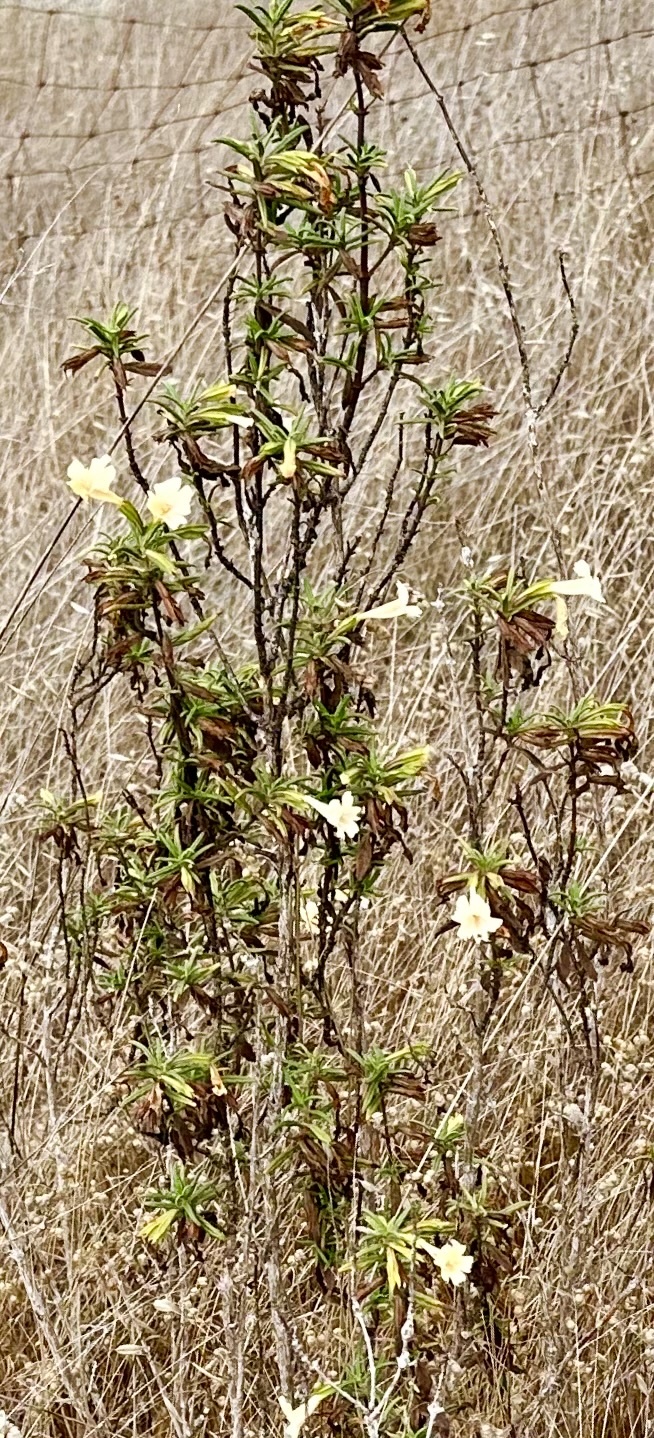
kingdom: Plantae
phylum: Tracheophyta
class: Magnoliopsida
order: Lamiales
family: Phrymaceae
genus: Diplacus
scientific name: Diplacus aurantiacus
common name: Bush monkey-flower
